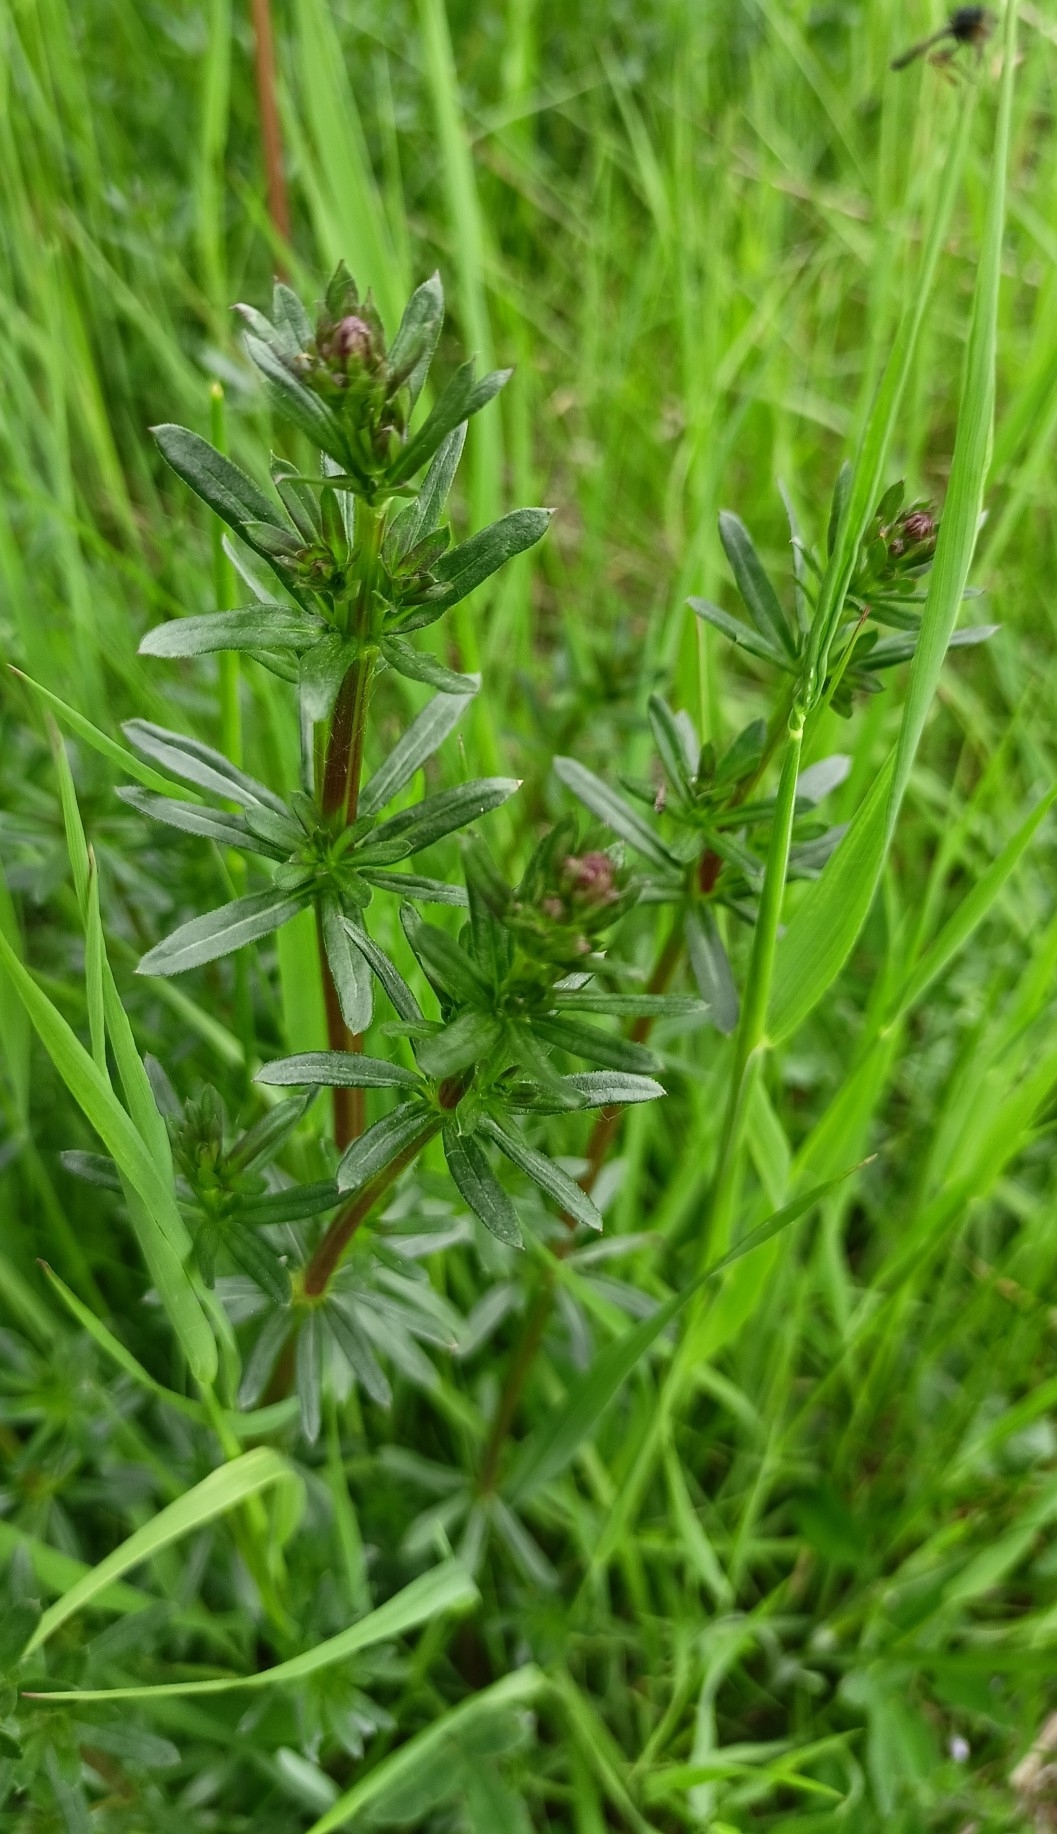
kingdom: Plantae
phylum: Tracheophyta
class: Magnoliopsida
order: Gentianales
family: Rubiaceae
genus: Galium
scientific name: Galium mollugo
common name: Hedge bedstraw
